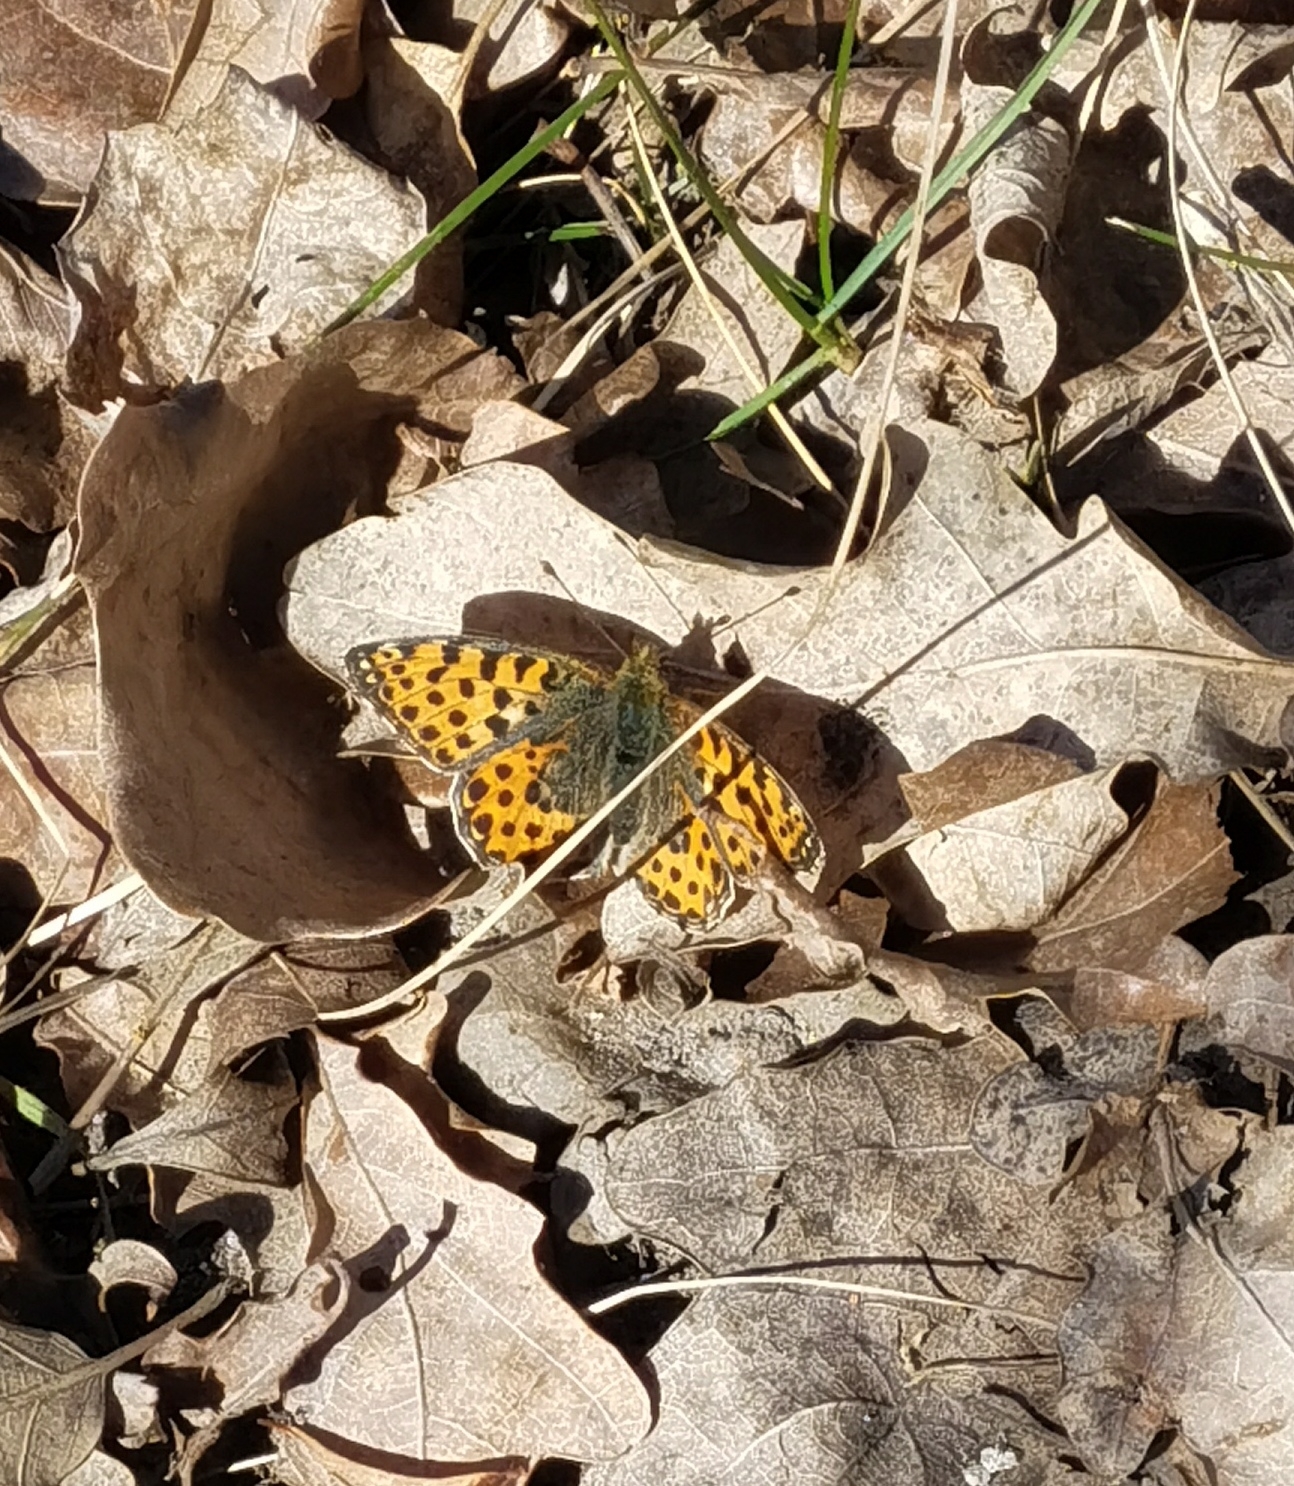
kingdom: Animalia
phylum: Arthropoda
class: Insecta
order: Lepidoptera
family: Nymphalidae
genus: Issoria
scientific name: Issoria lathonia
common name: Queen of spain fritillary
